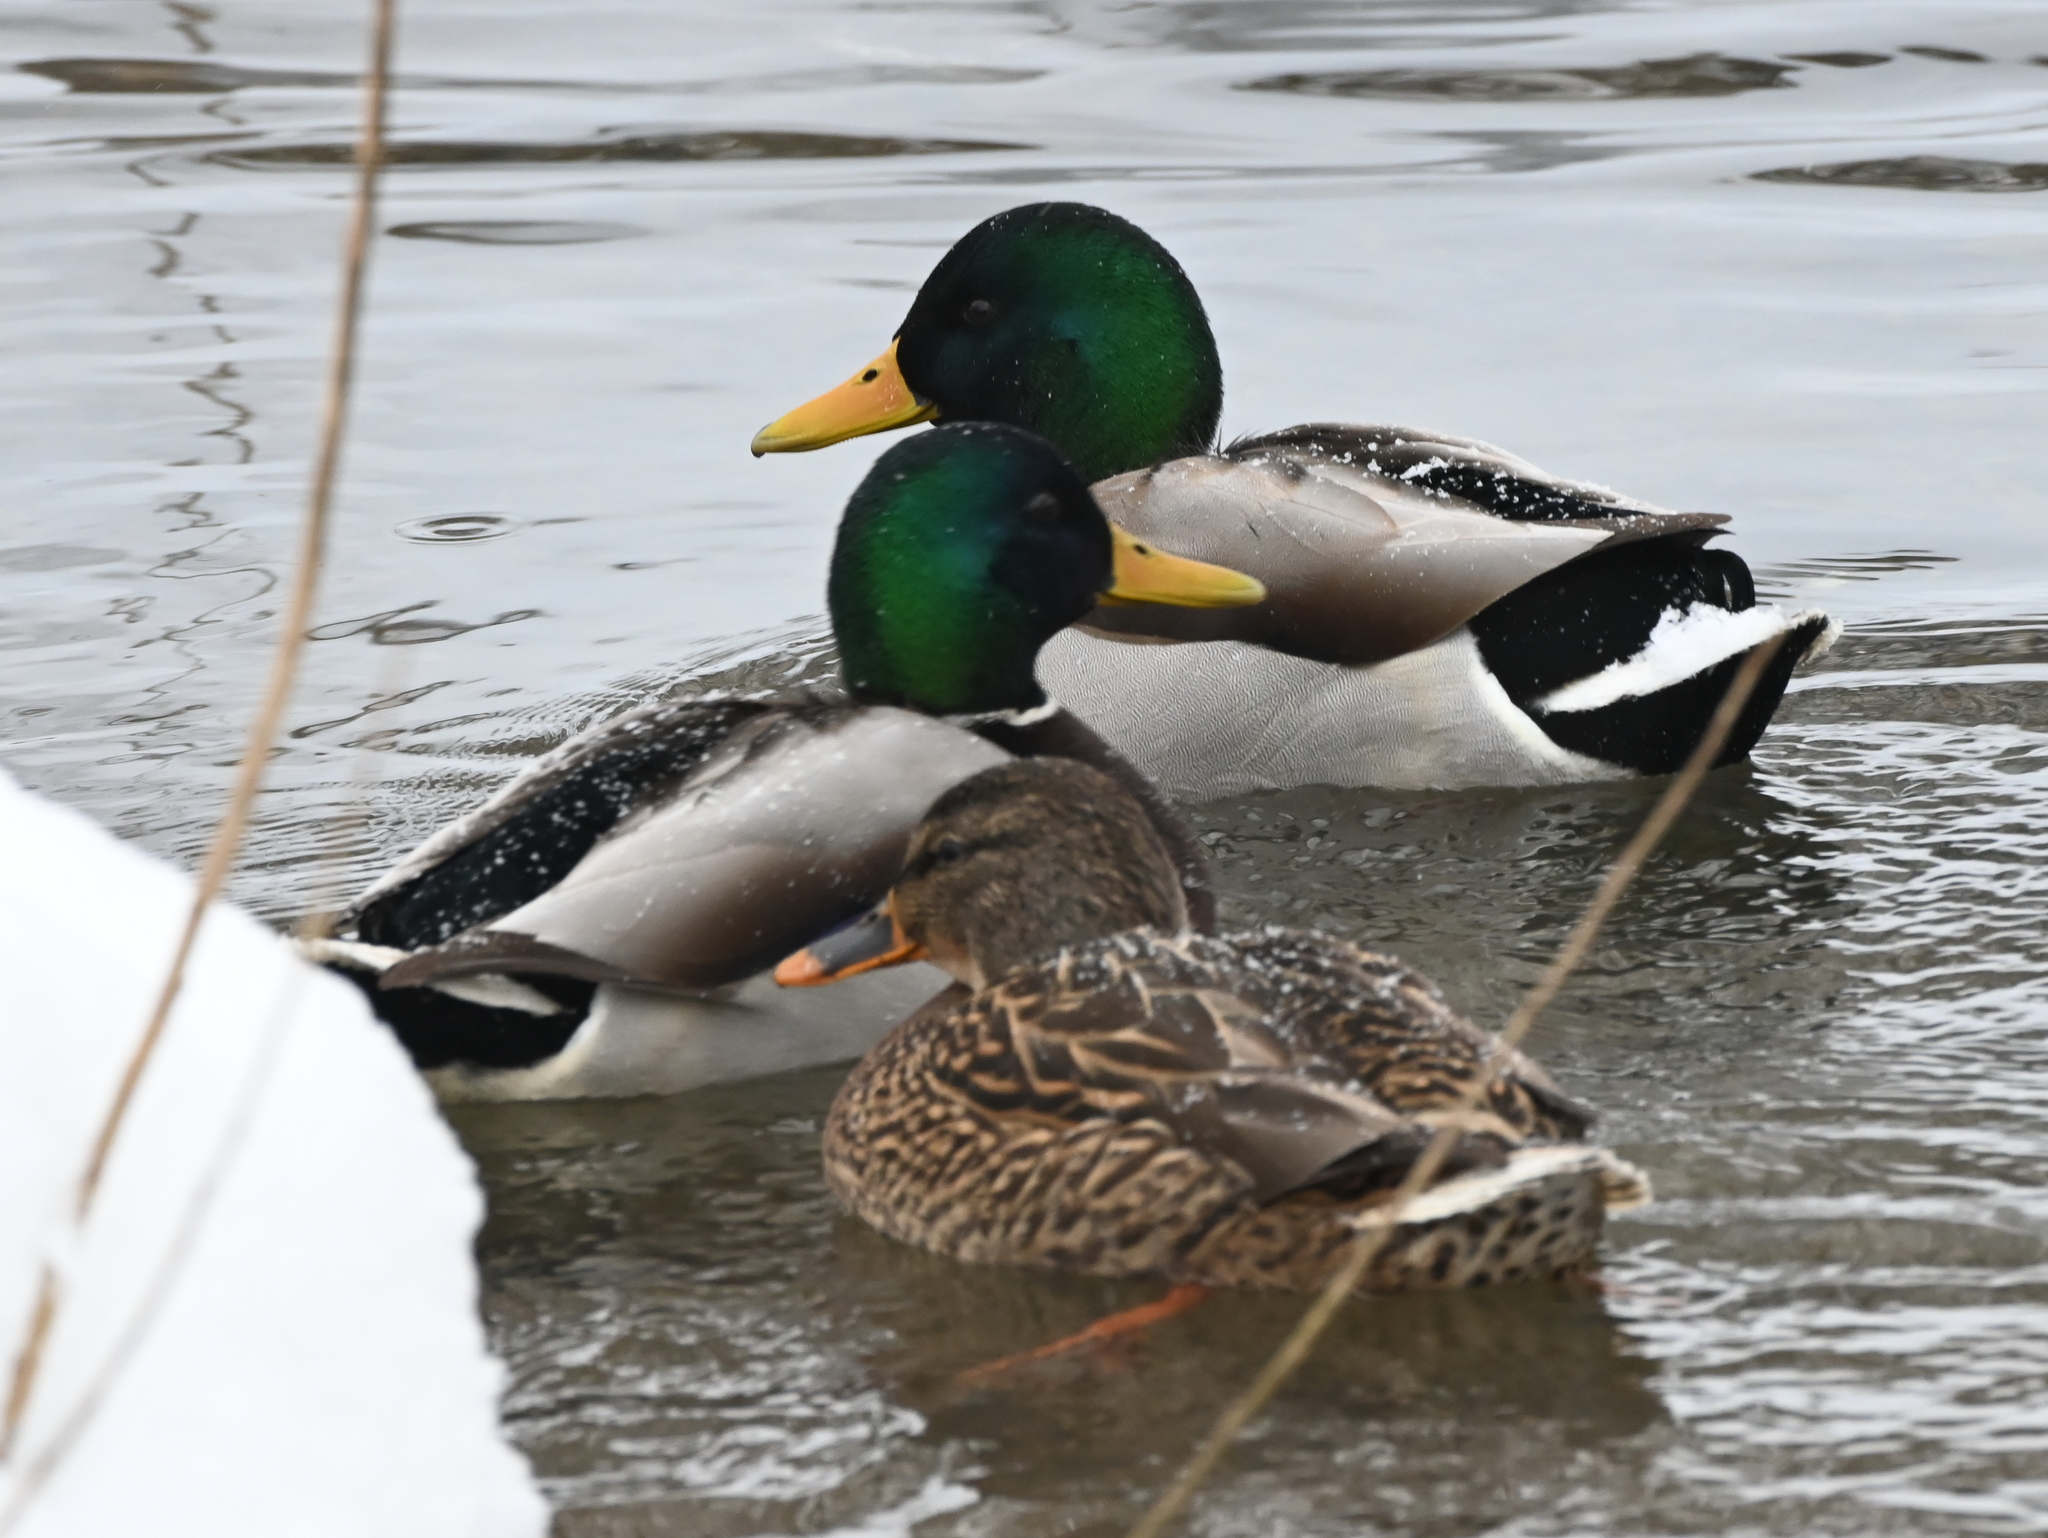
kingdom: Animalia
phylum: Chordata
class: Aves
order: Anseriformes
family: Anatidae
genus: Anas
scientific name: Anas platyrhynchos
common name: Mallard
